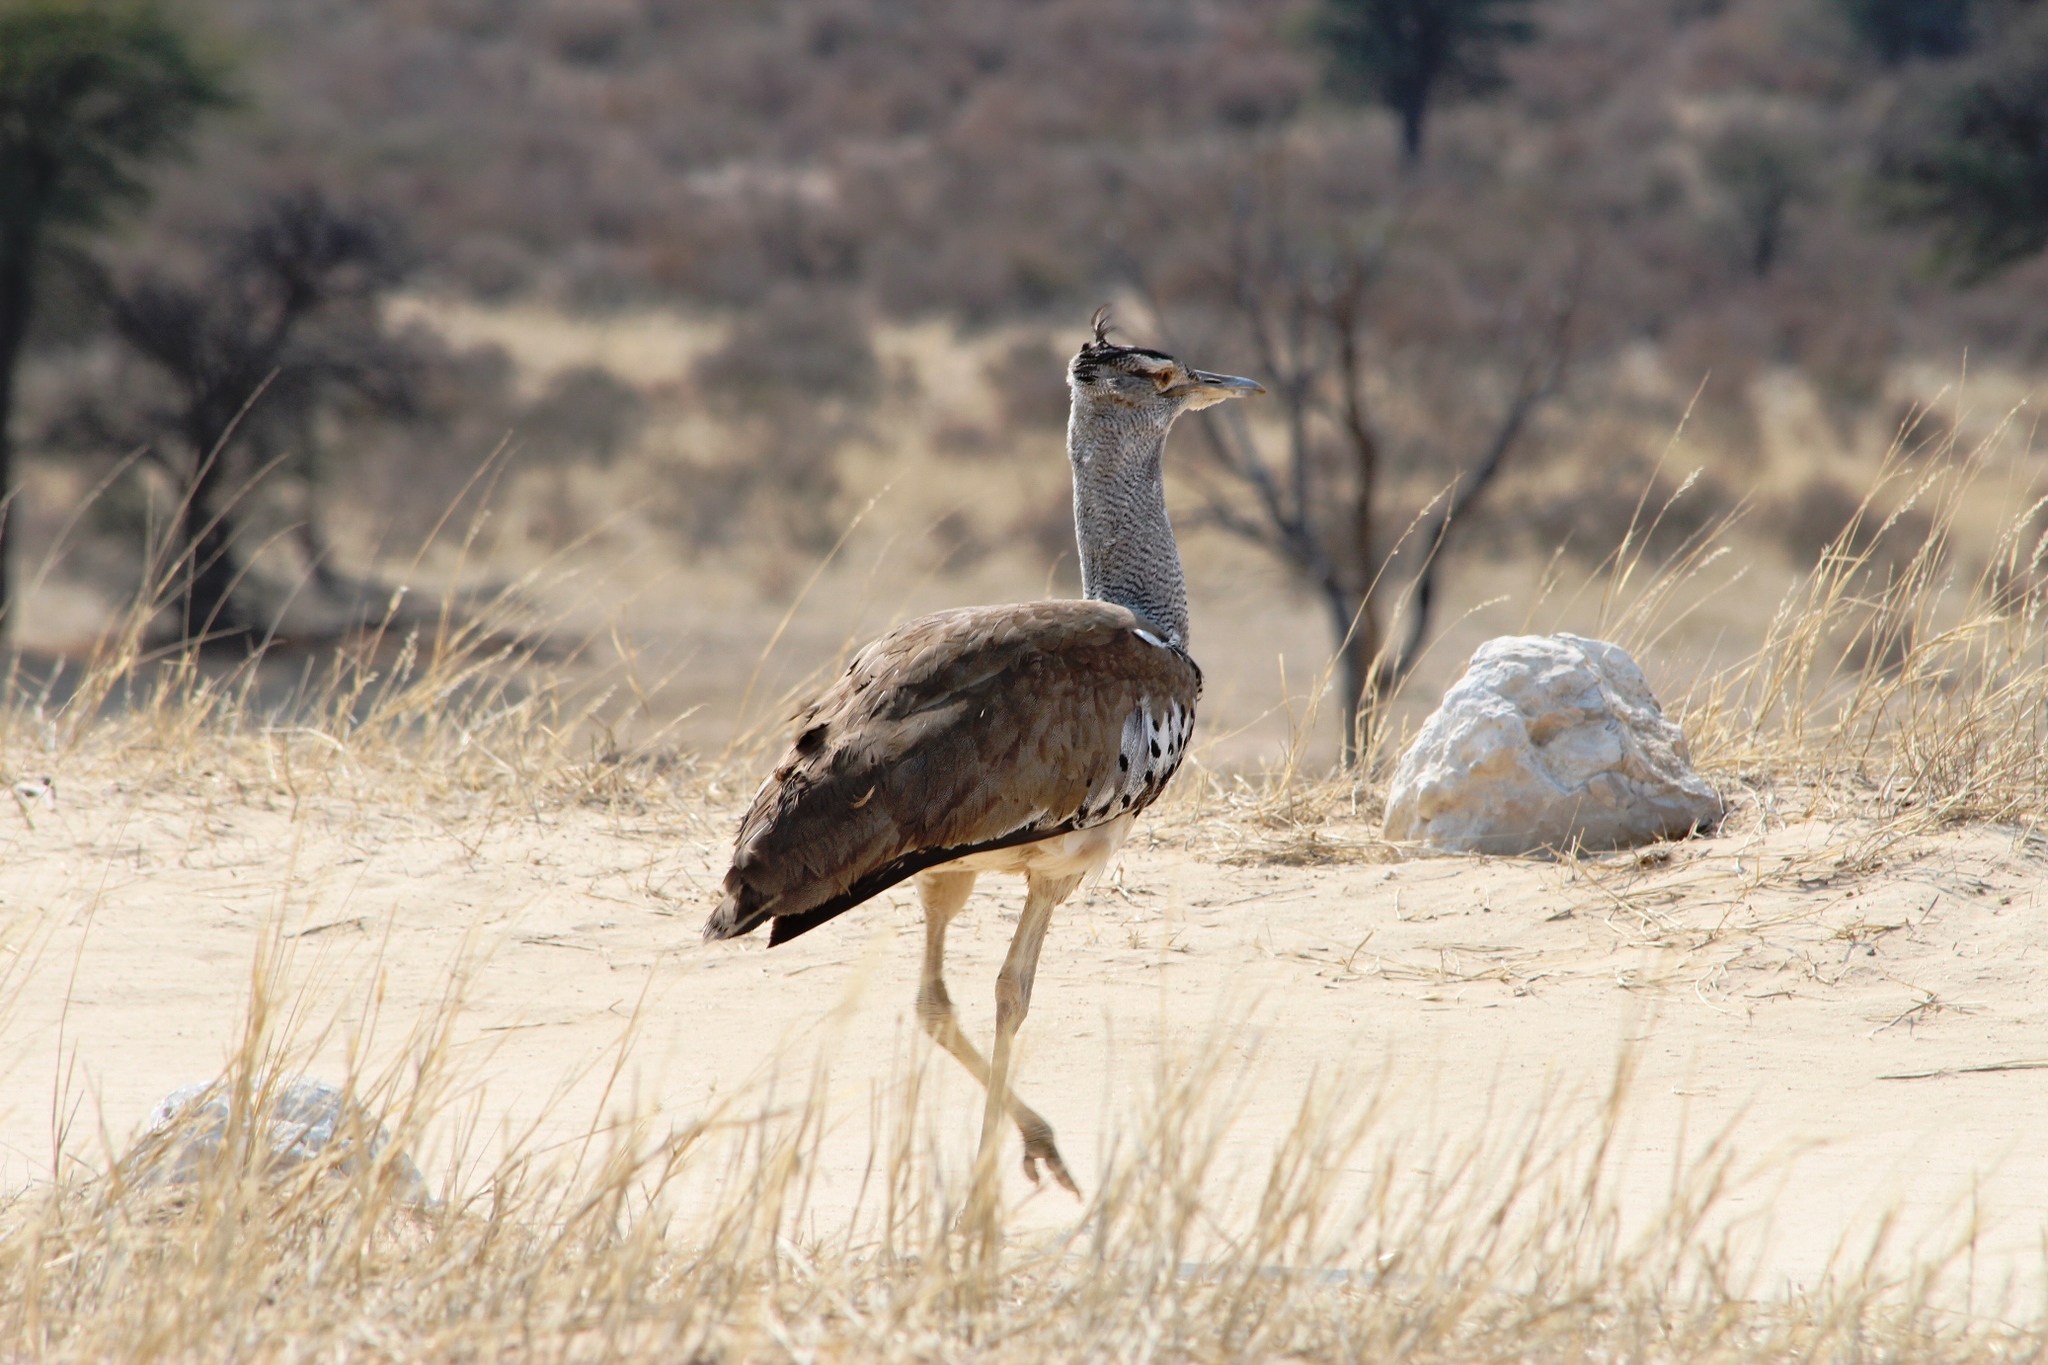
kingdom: Animalia
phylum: Chordata
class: Aves
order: Otidiformes
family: Otididae
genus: Ardeotis
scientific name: Ardeotis kori
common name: Kori bustard
